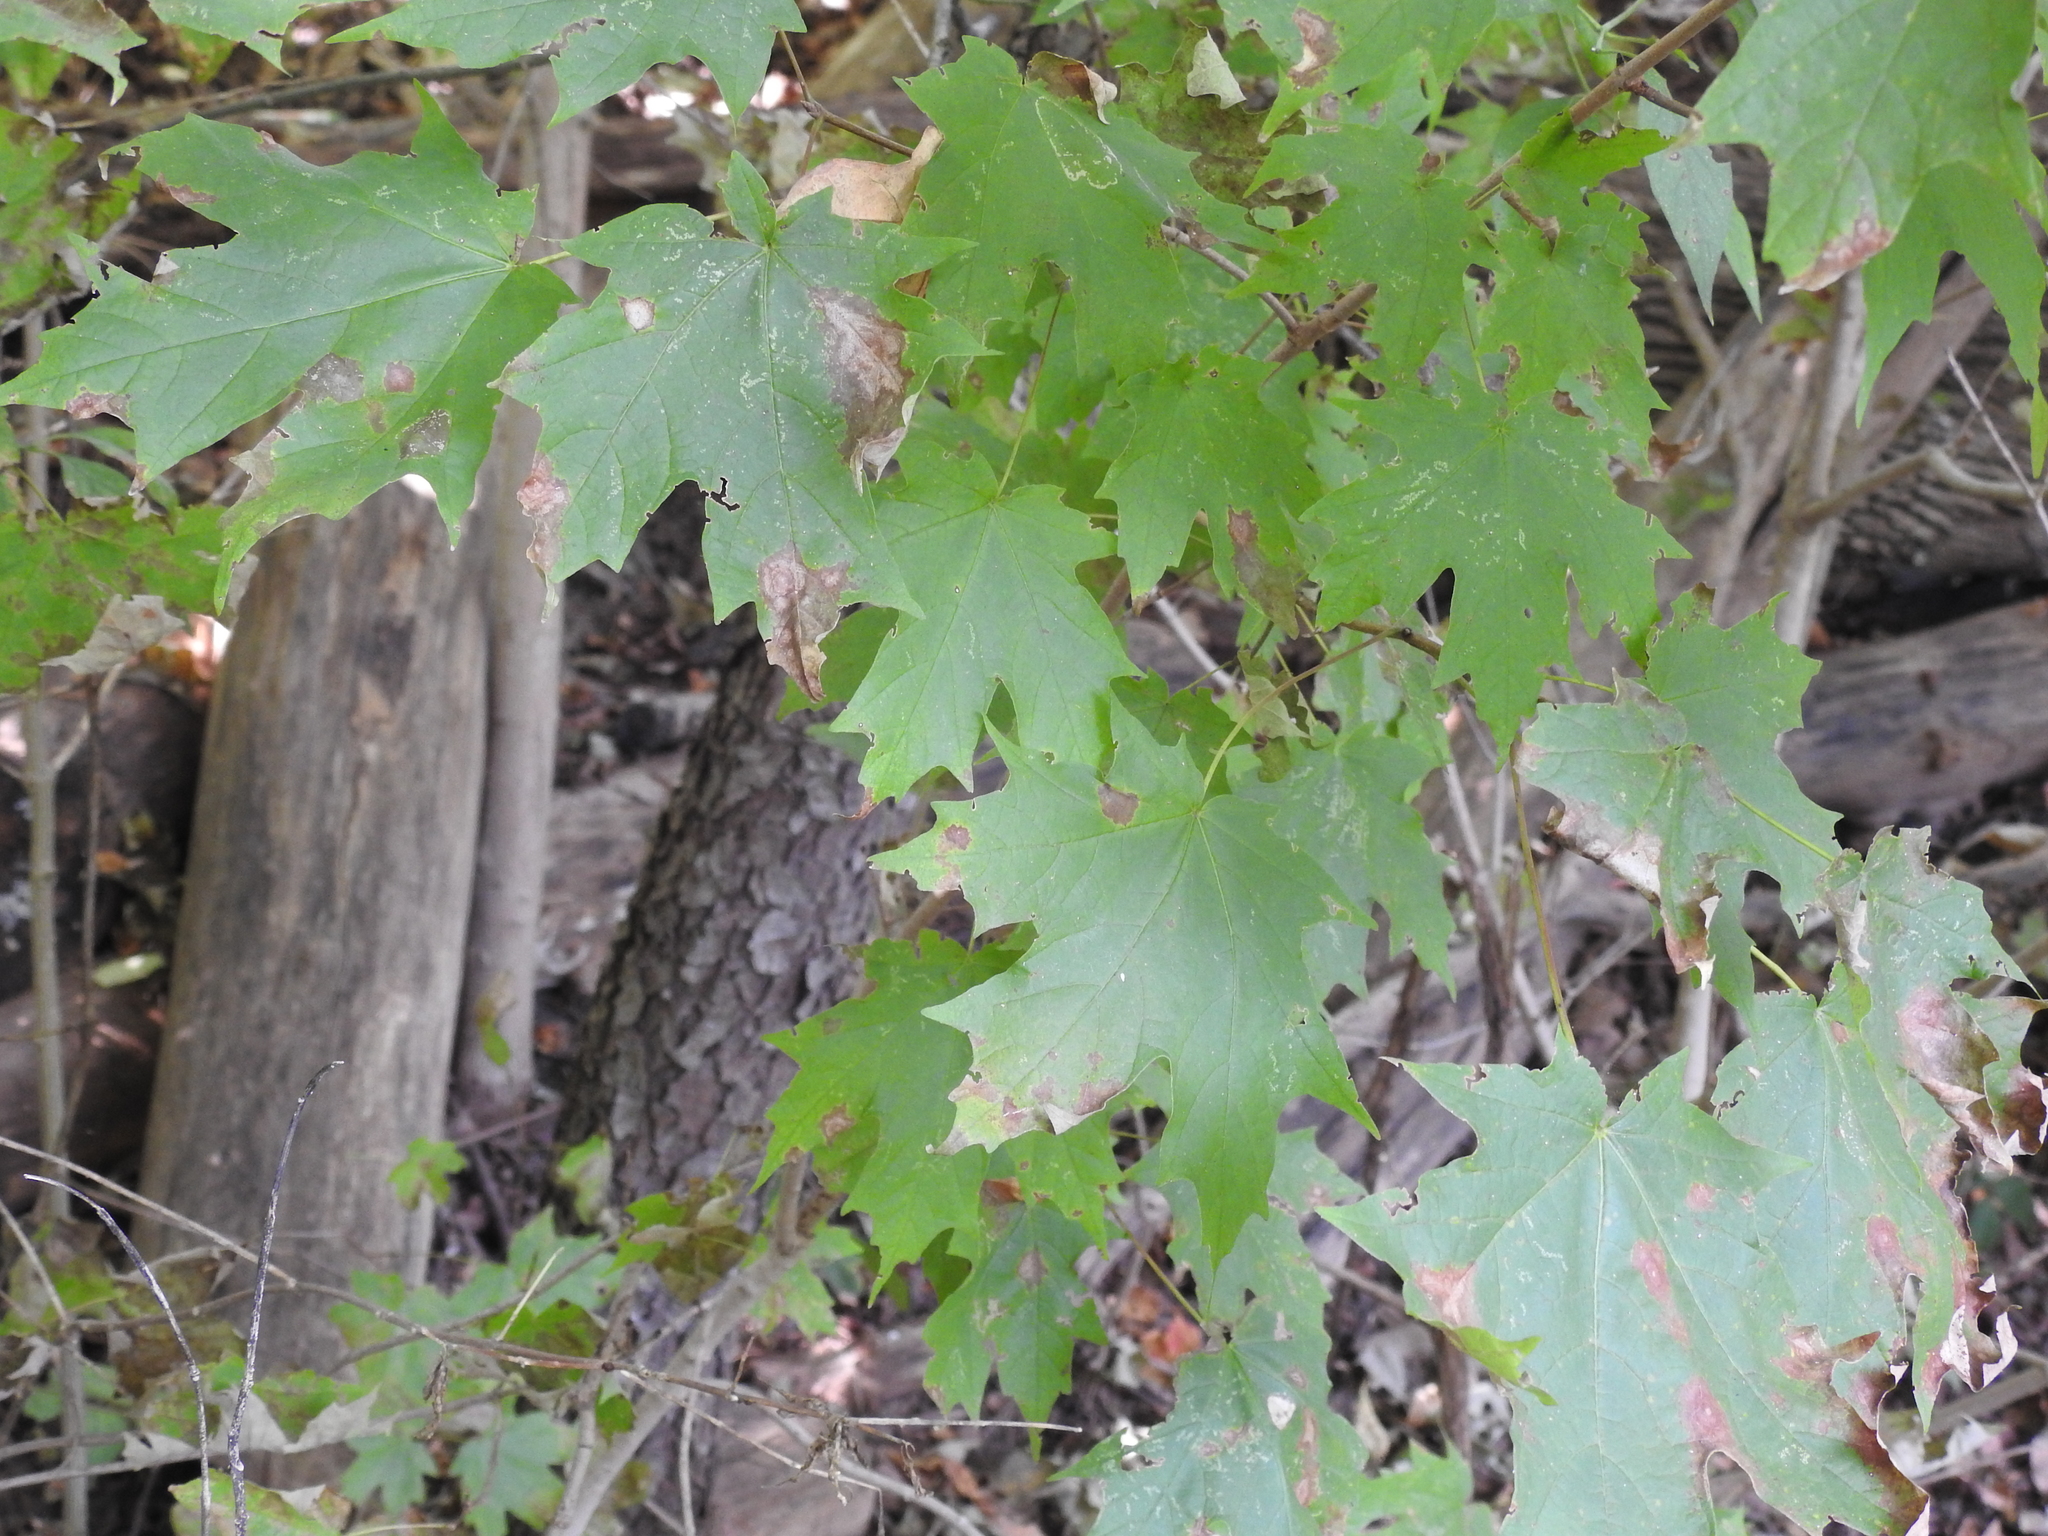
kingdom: Plantae
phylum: Tracheophyta
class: Magnoliopsida
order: Sapindales
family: Sapindaceae
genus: Acer
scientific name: Acer saccharum
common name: Sugar maple
